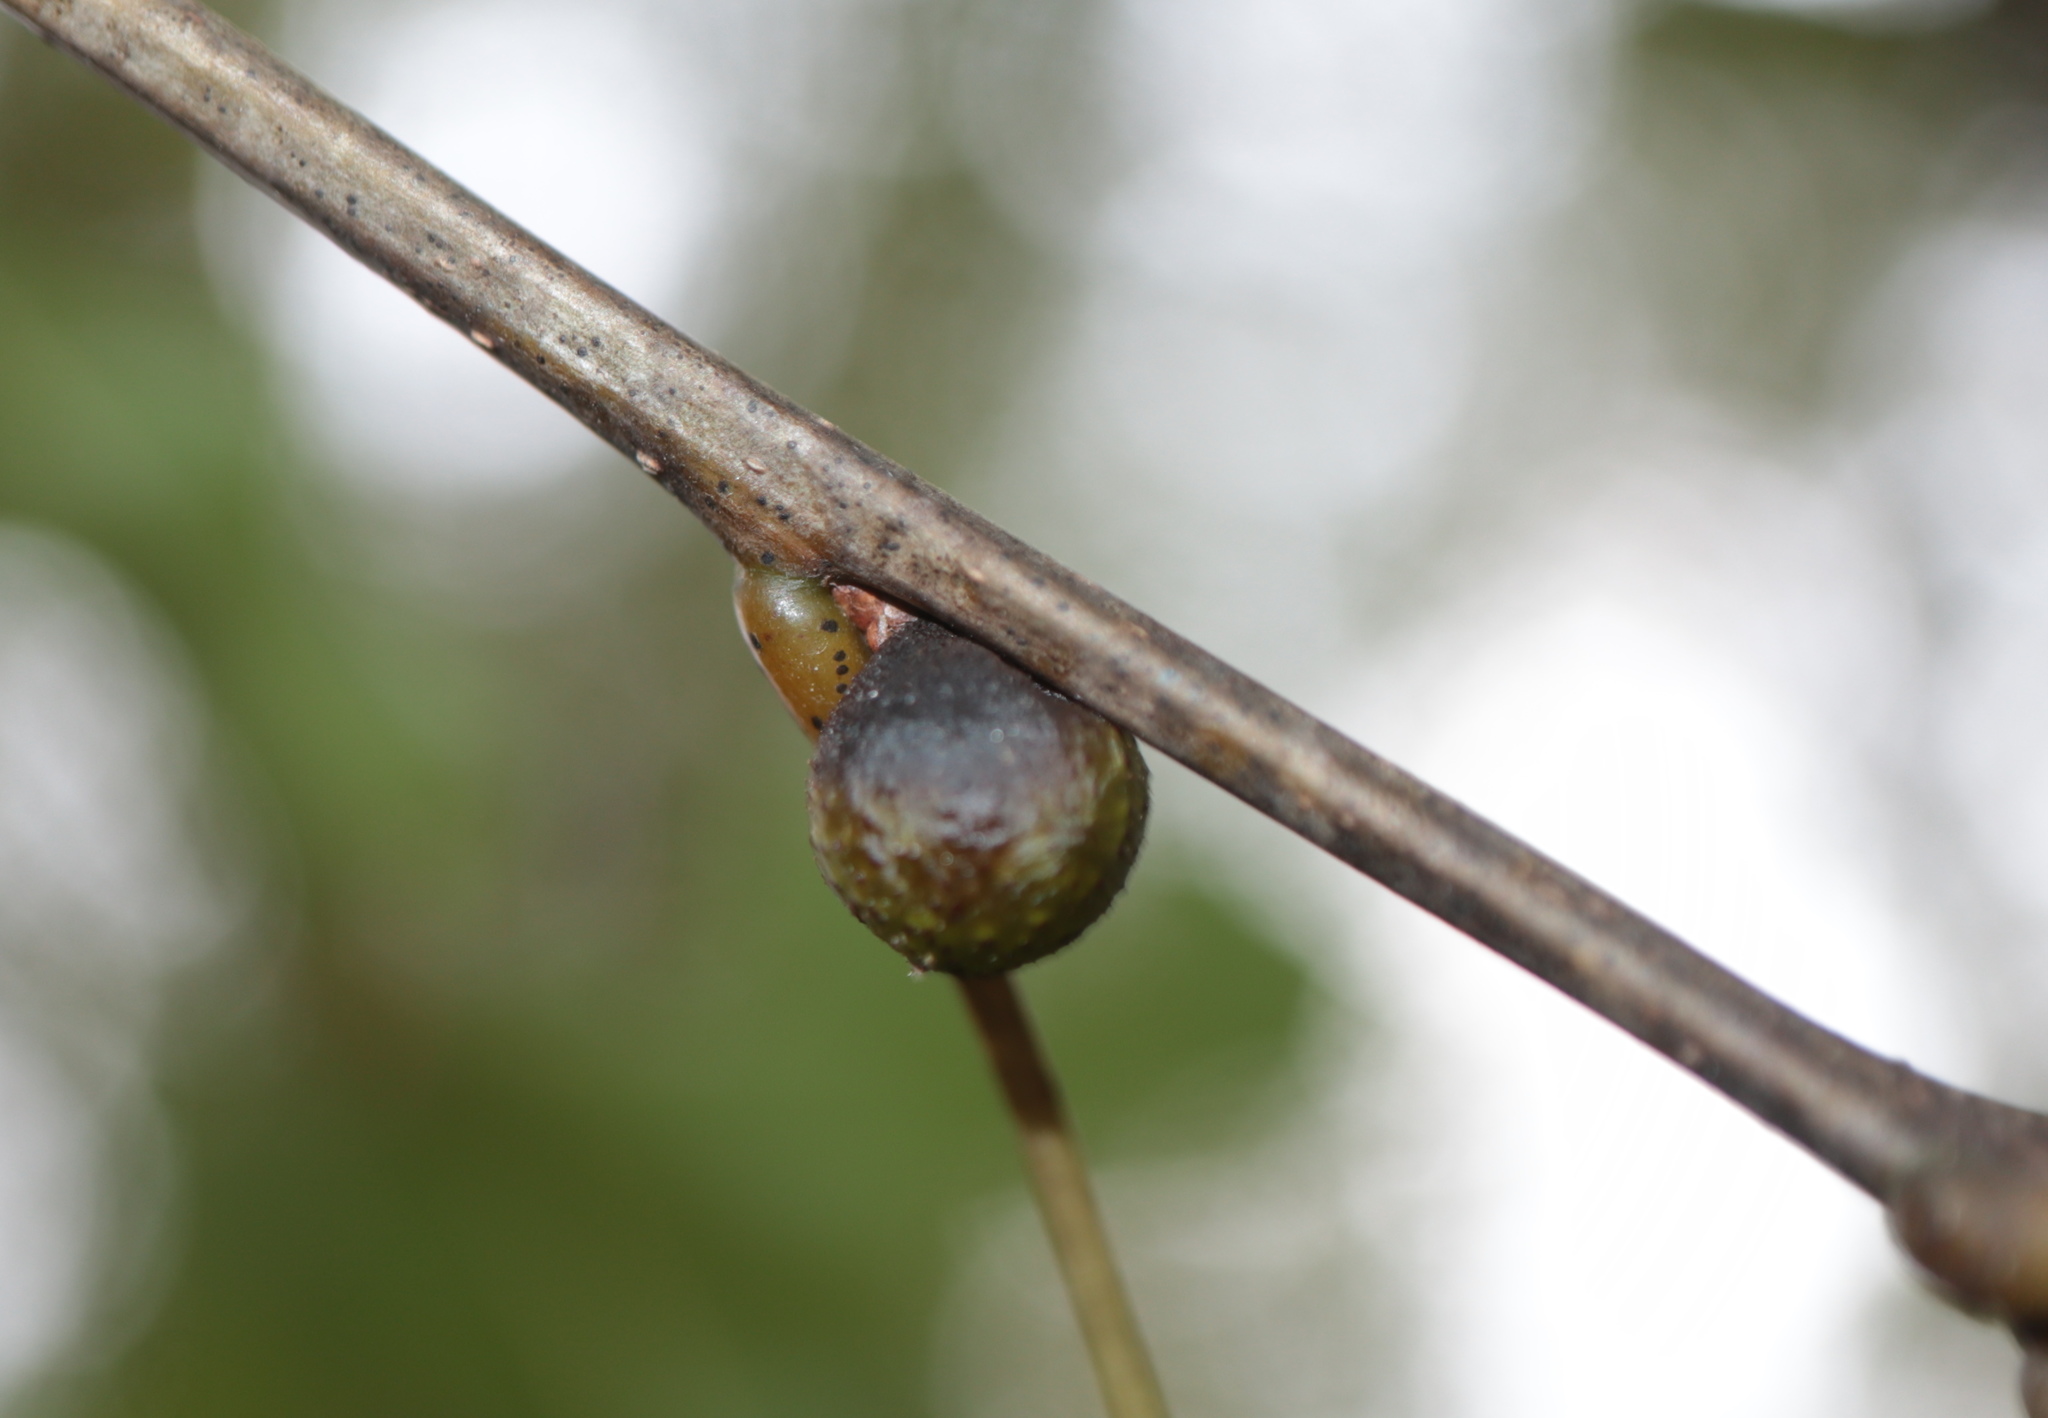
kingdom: Animalia
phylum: Arthropoda
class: Insecta
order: Hymenoptera
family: Cynipidae
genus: Amphibolips
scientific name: Amphibolips
